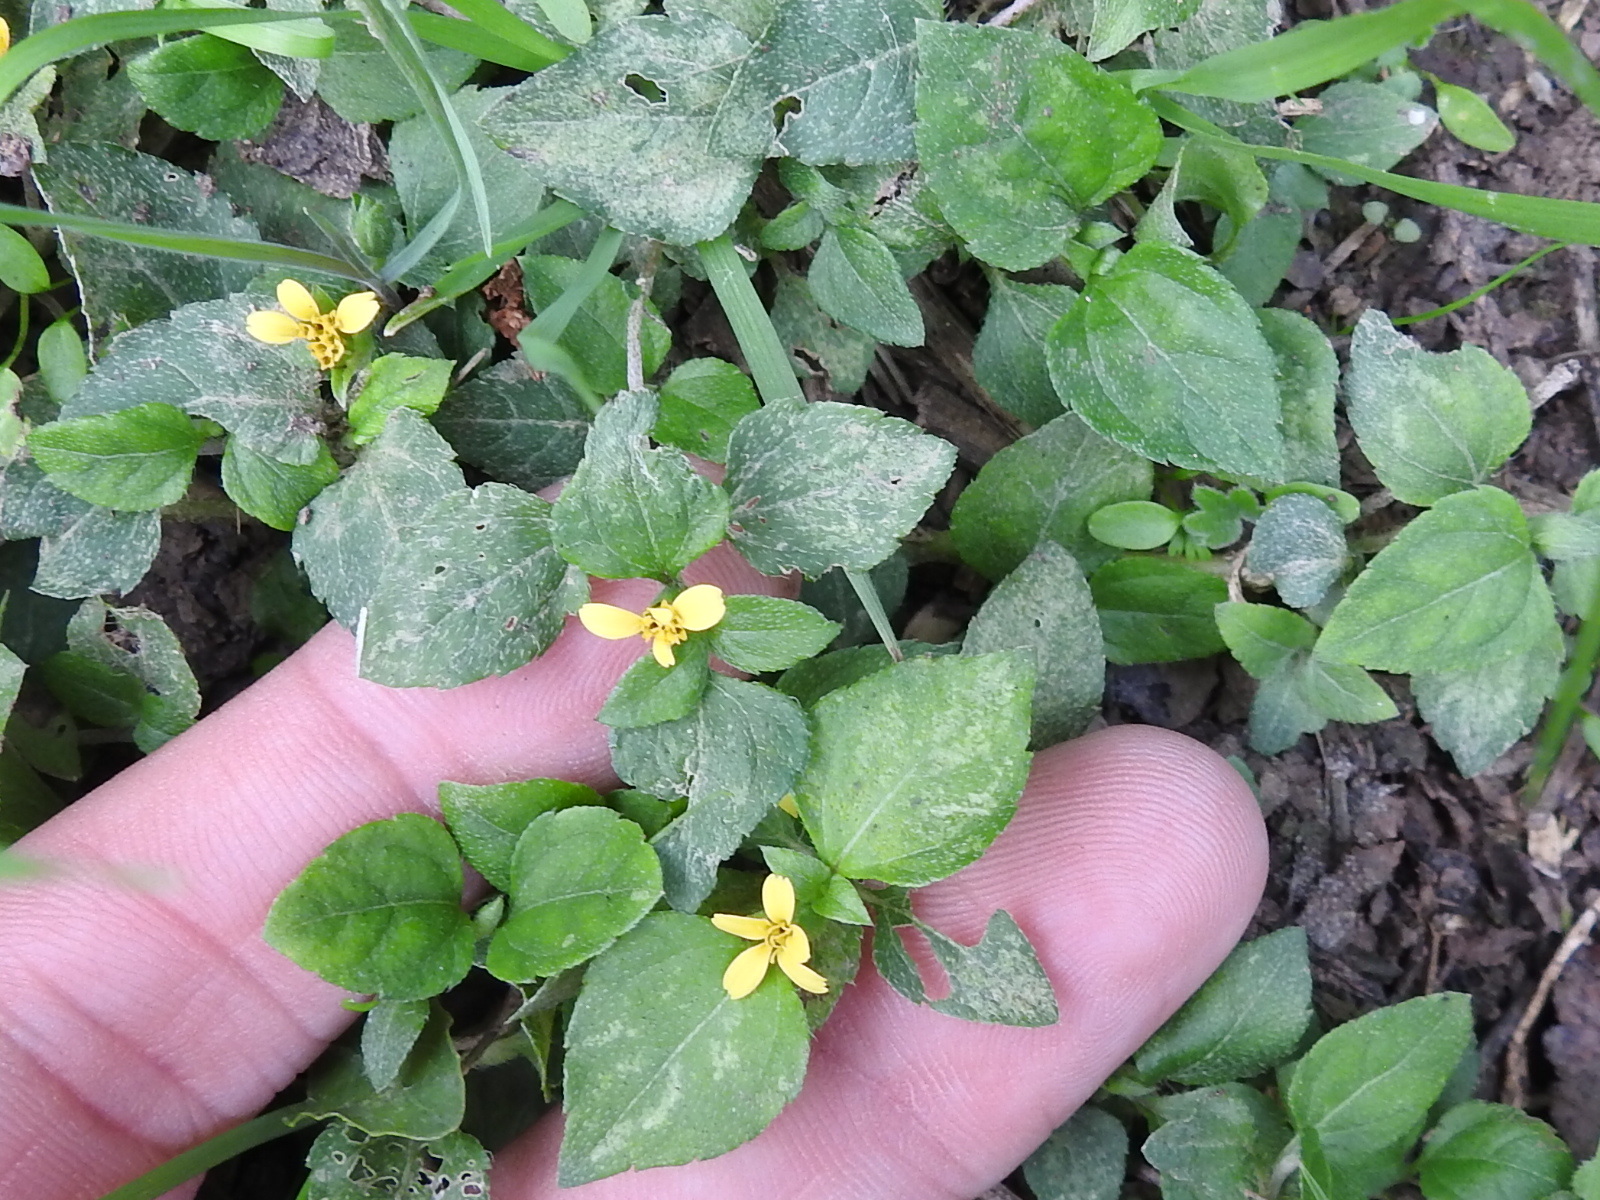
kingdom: Plantae
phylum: Tracheophyta
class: Magnoliopsida
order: Asterales
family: Asteraceae
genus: Calyptocarpus
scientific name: Calyptocarpus vialis
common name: Straggler daisy
